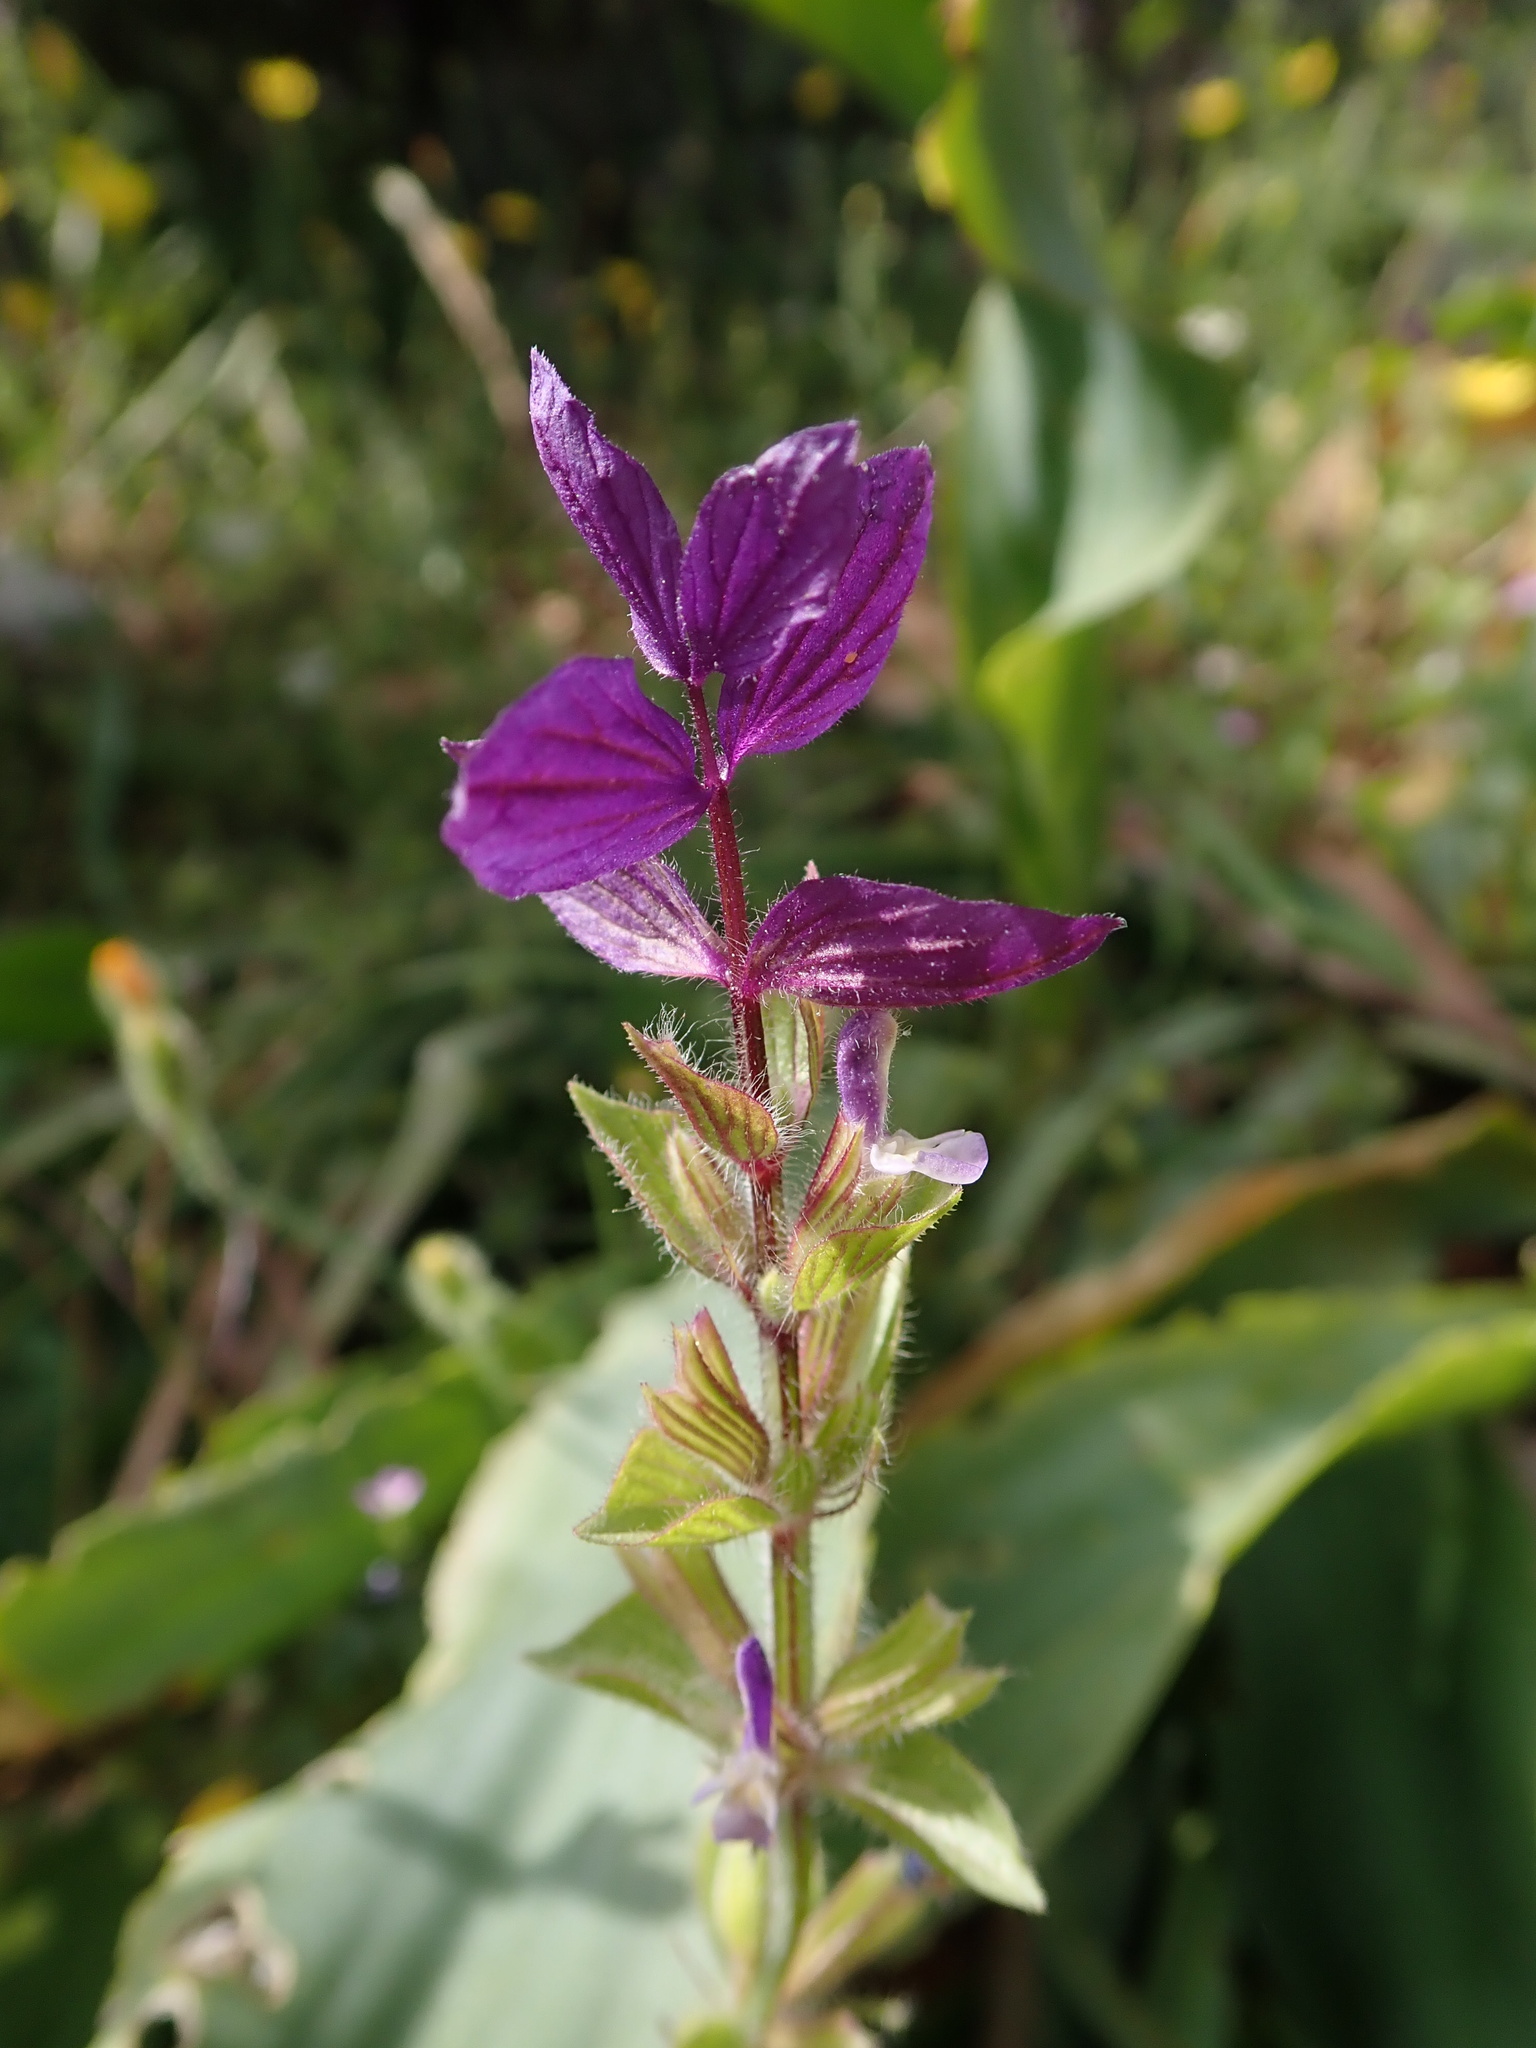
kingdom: Plantae
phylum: Tracheophyta
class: Magnoliopsida
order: Lamiales
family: Lamiaceae
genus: Salvia
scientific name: Salvia viridis
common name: Annual clary
